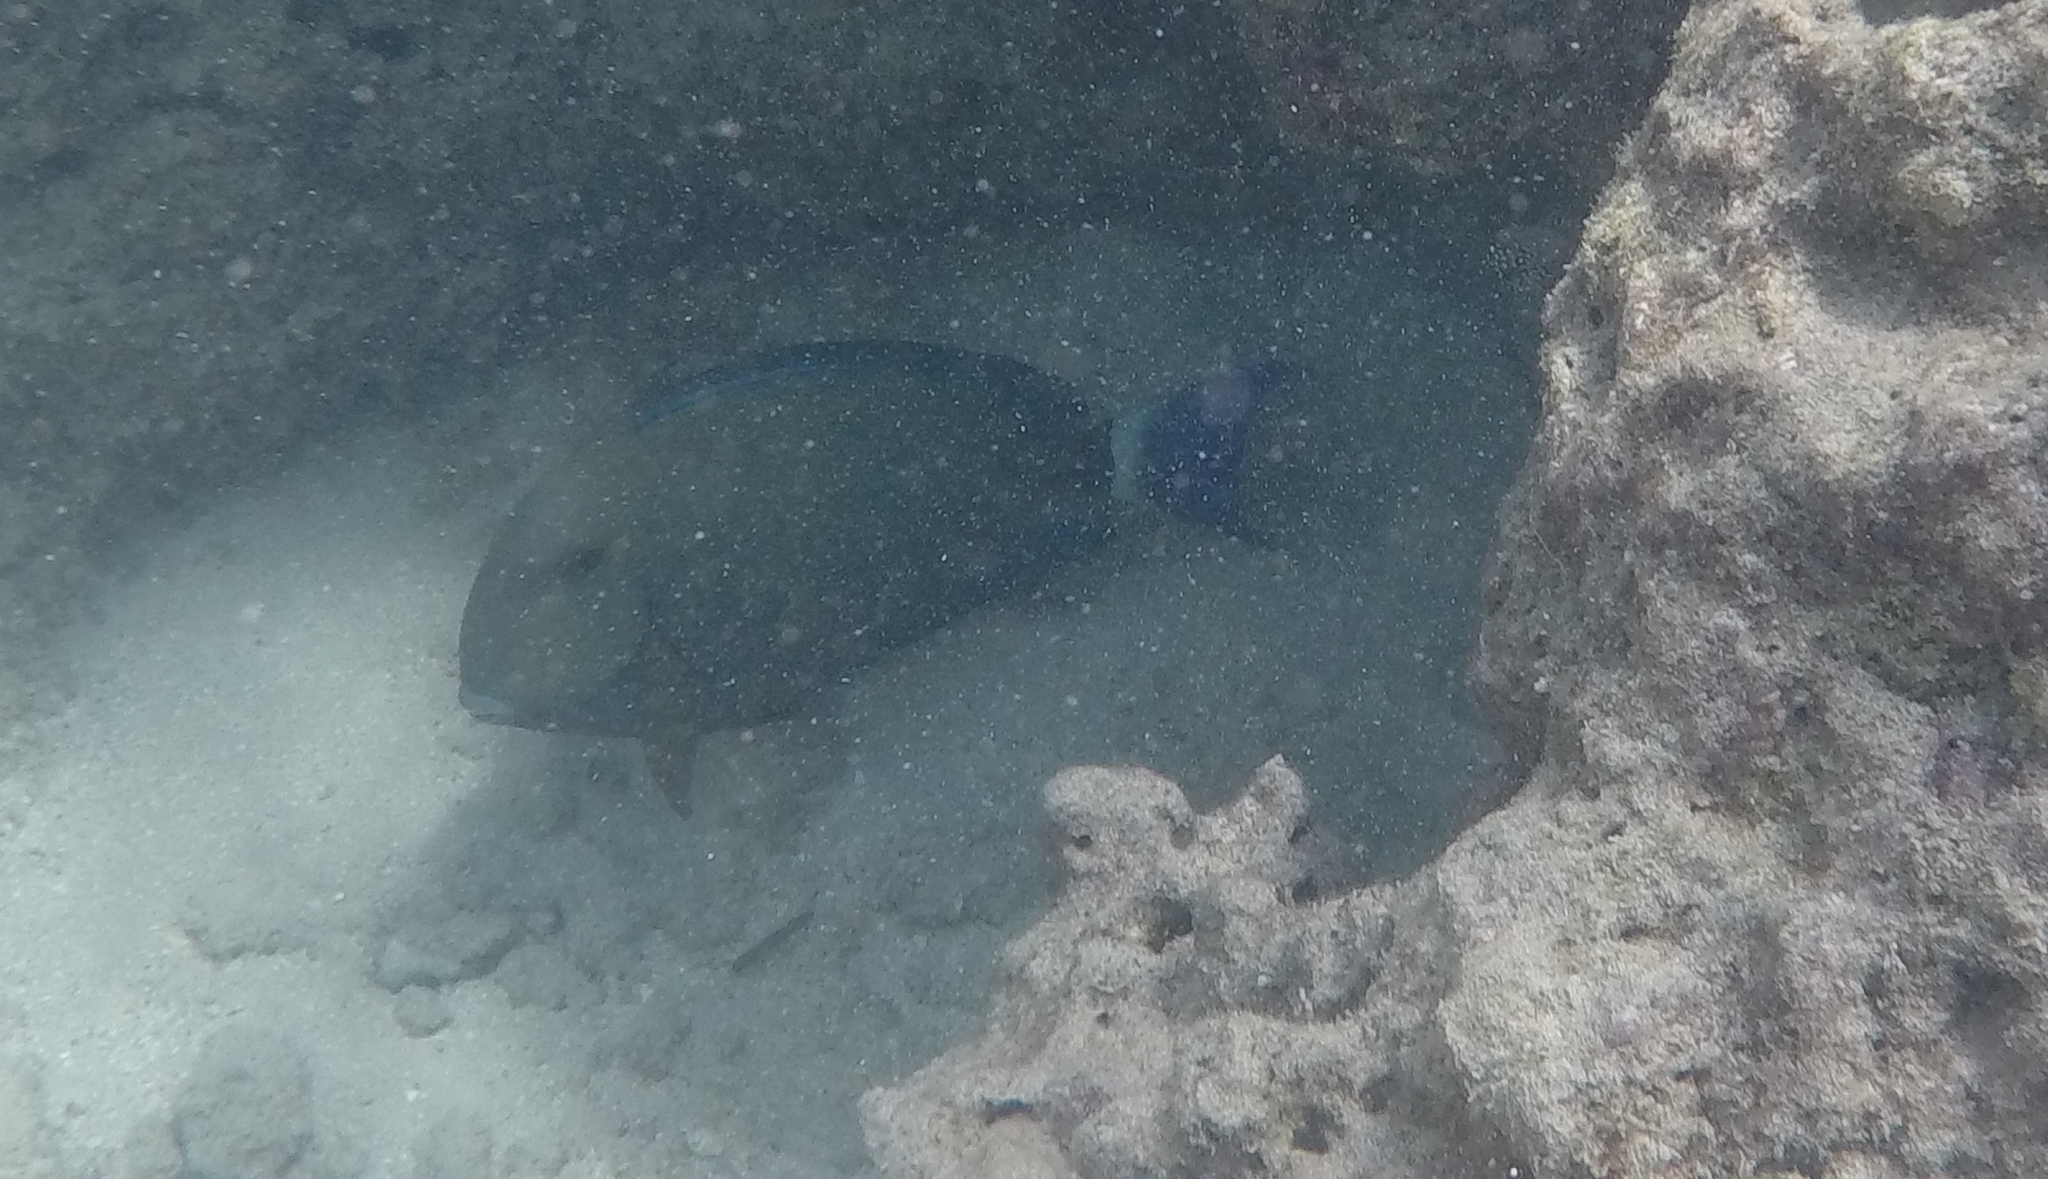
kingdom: Animalia
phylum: Chordata
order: Perciformes
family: Acanthuridae
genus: Acanthurus
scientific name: Acanthurus blochii
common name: Blue-banded pualu
